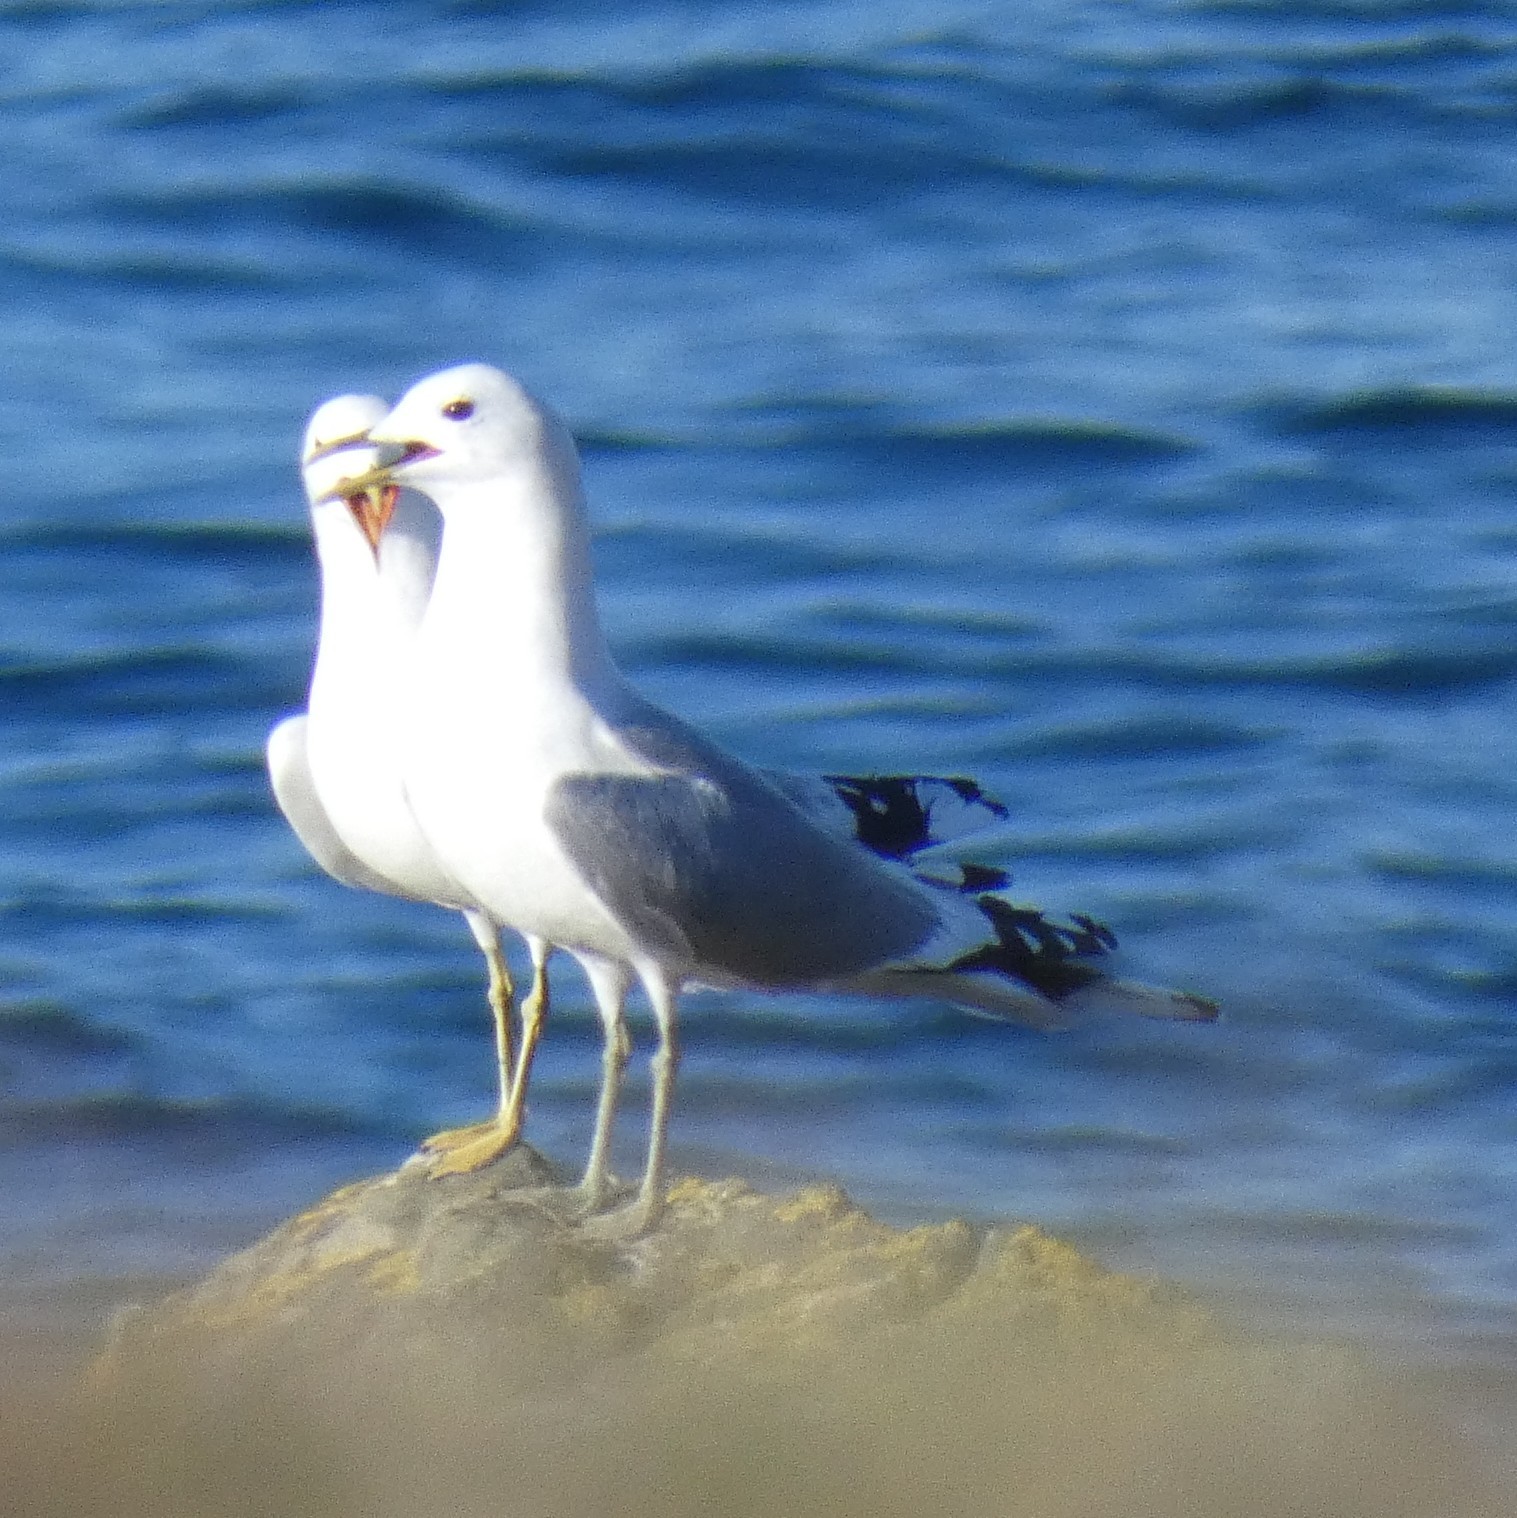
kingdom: Animalia
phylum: Chordata
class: Aves
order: Charadriiformes
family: Laridae
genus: Larus
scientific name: Larus fuscus
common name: Lesser black-backed gull
